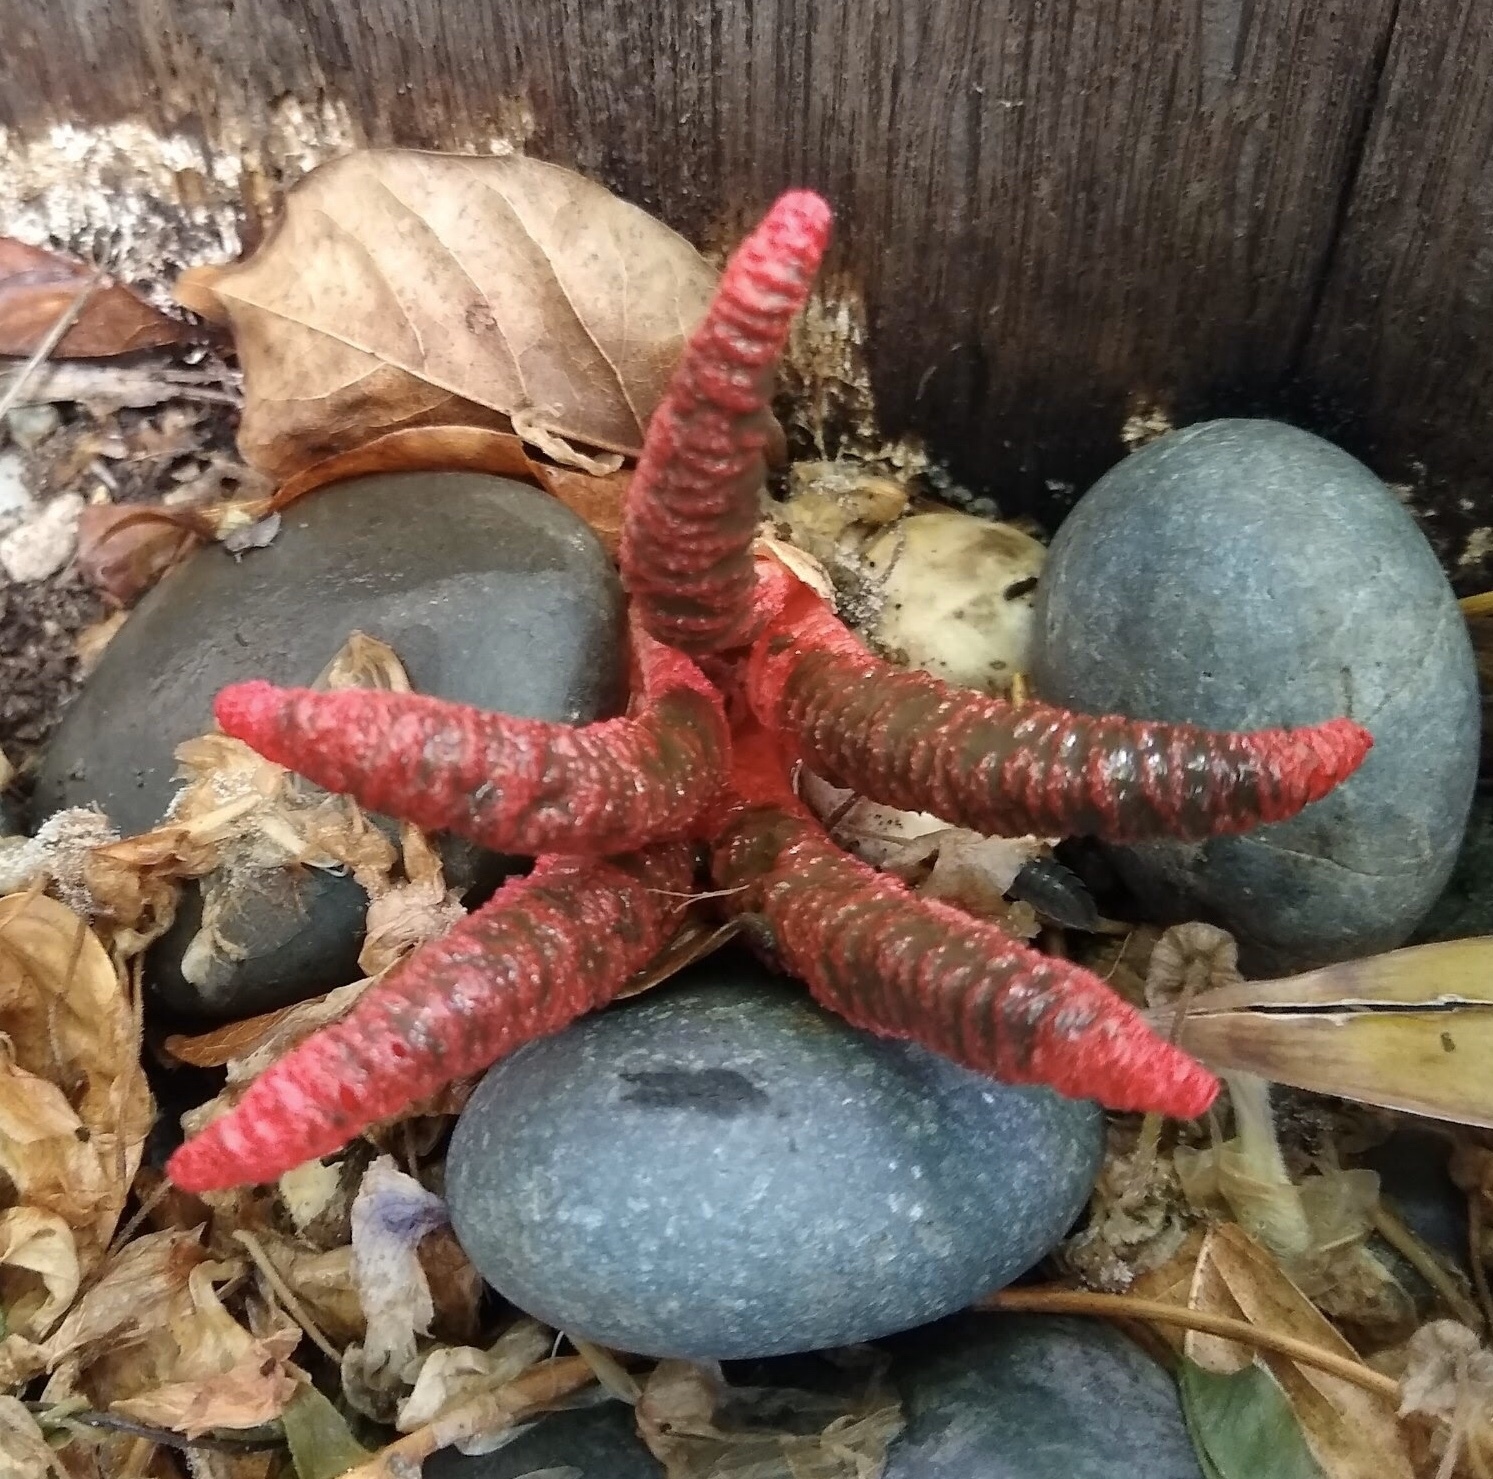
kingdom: Fungi
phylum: Basidiomycota
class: Agaricomycetes
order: Phallales
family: Phallaceae
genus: Clathrus
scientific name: Clathrus archeri
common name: Devil's fingers
